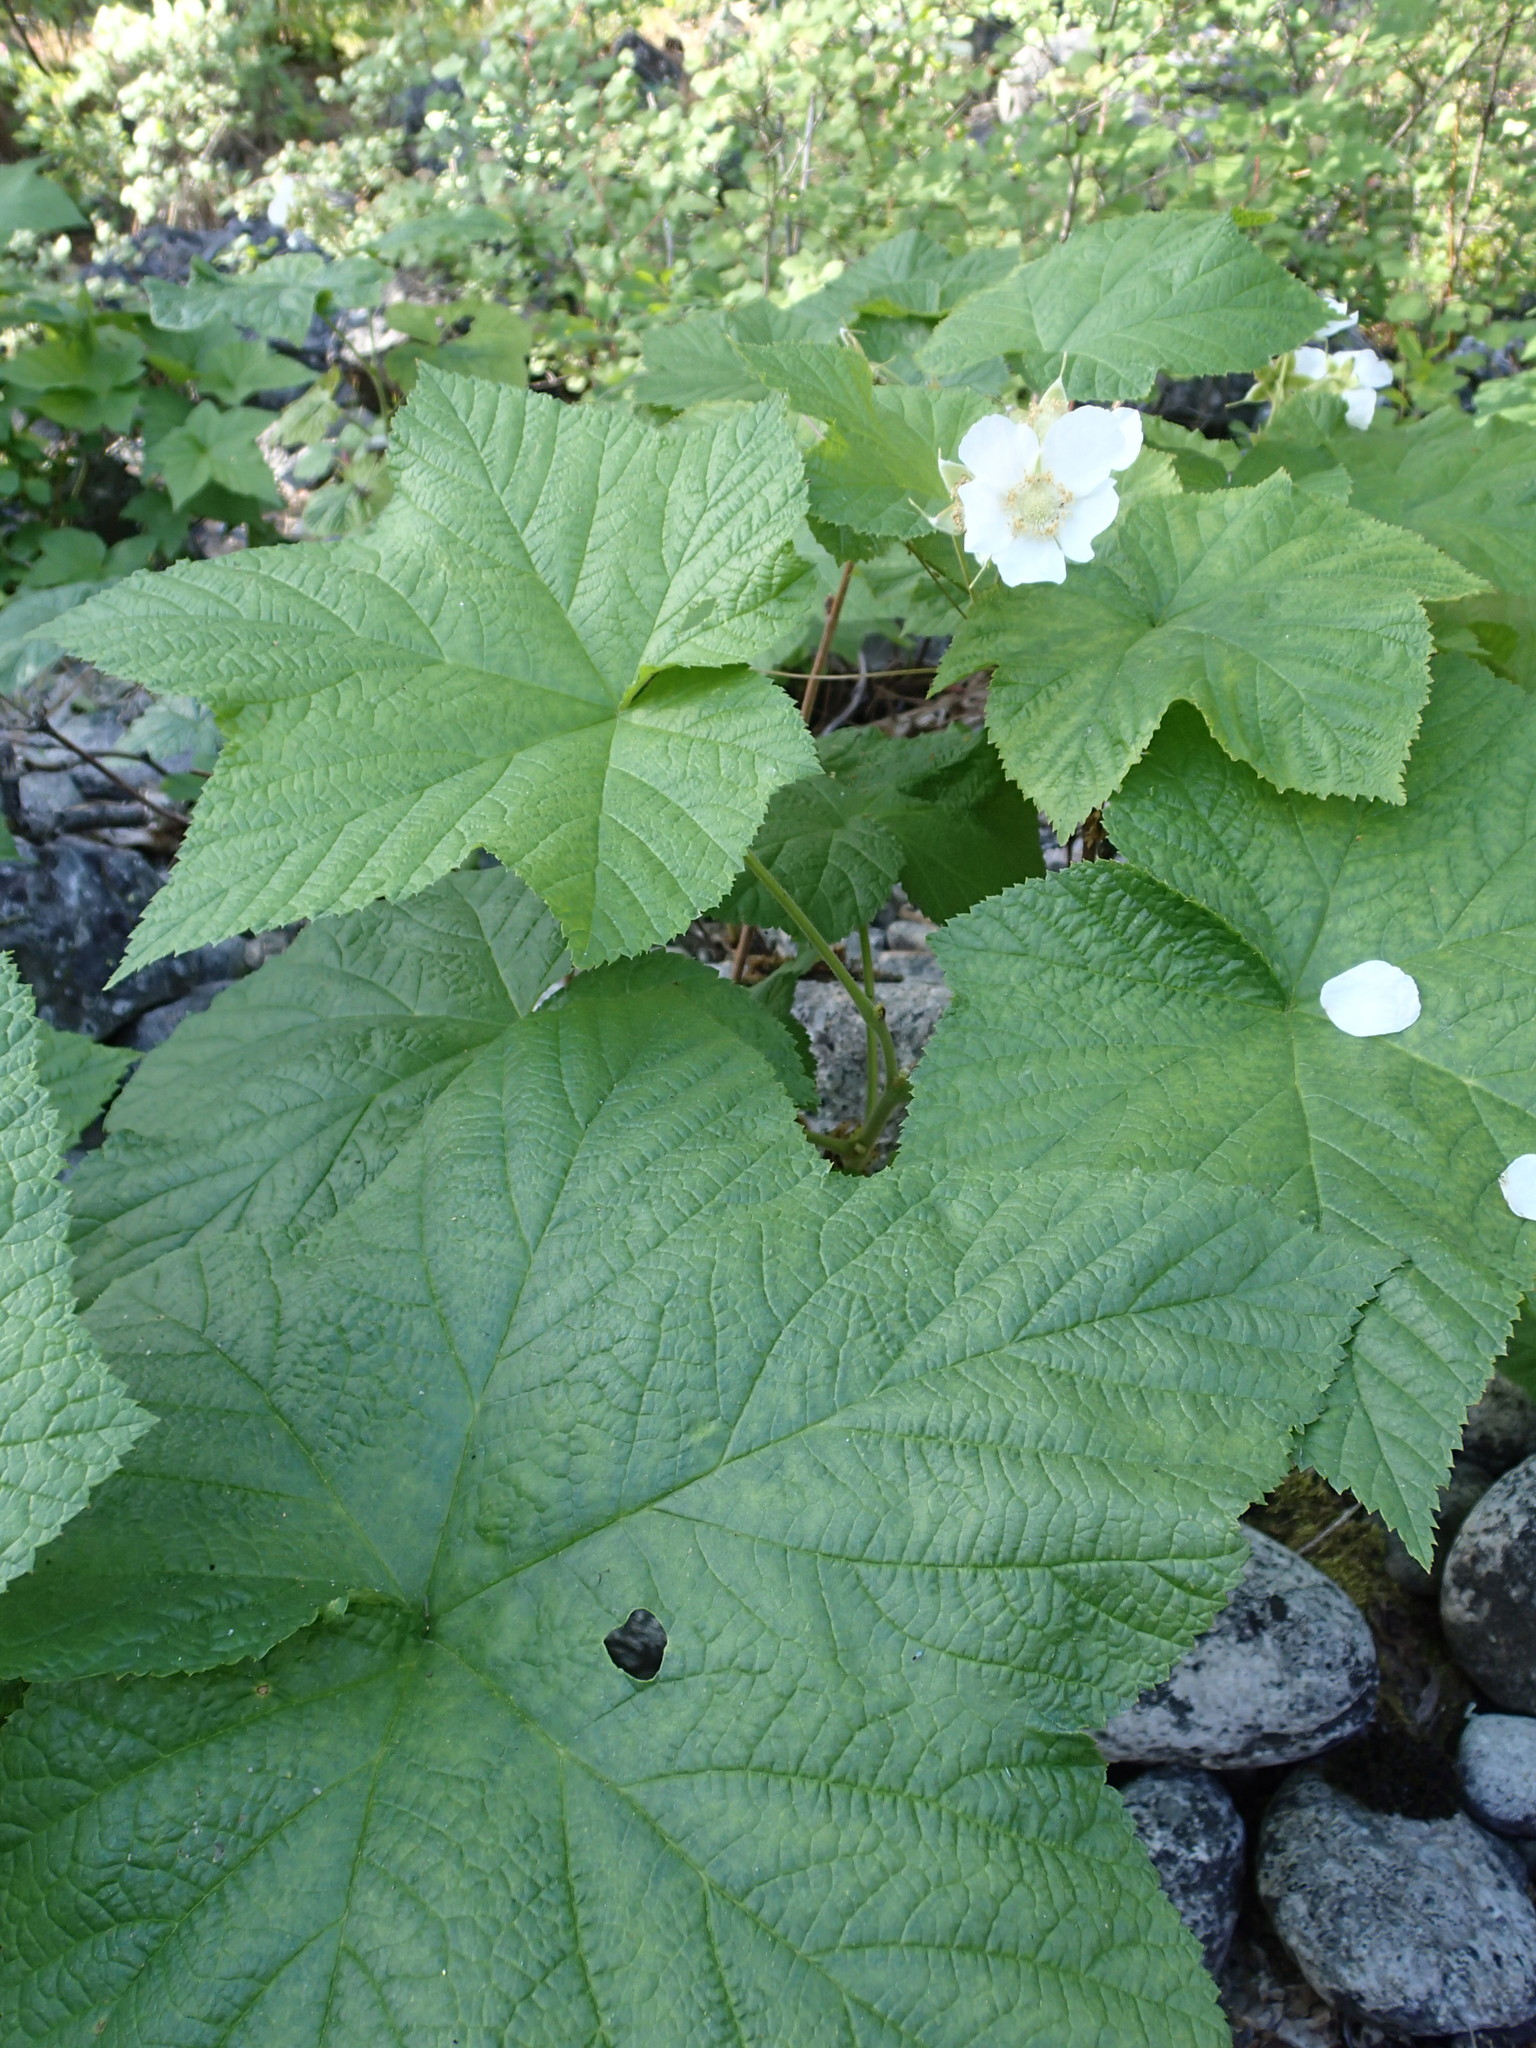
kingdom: Plantae
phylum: Tracheophyta
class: Magnoliopsida
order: Rosales
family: Rosaceae
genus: Rubus
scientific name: Rubus parviflorus
